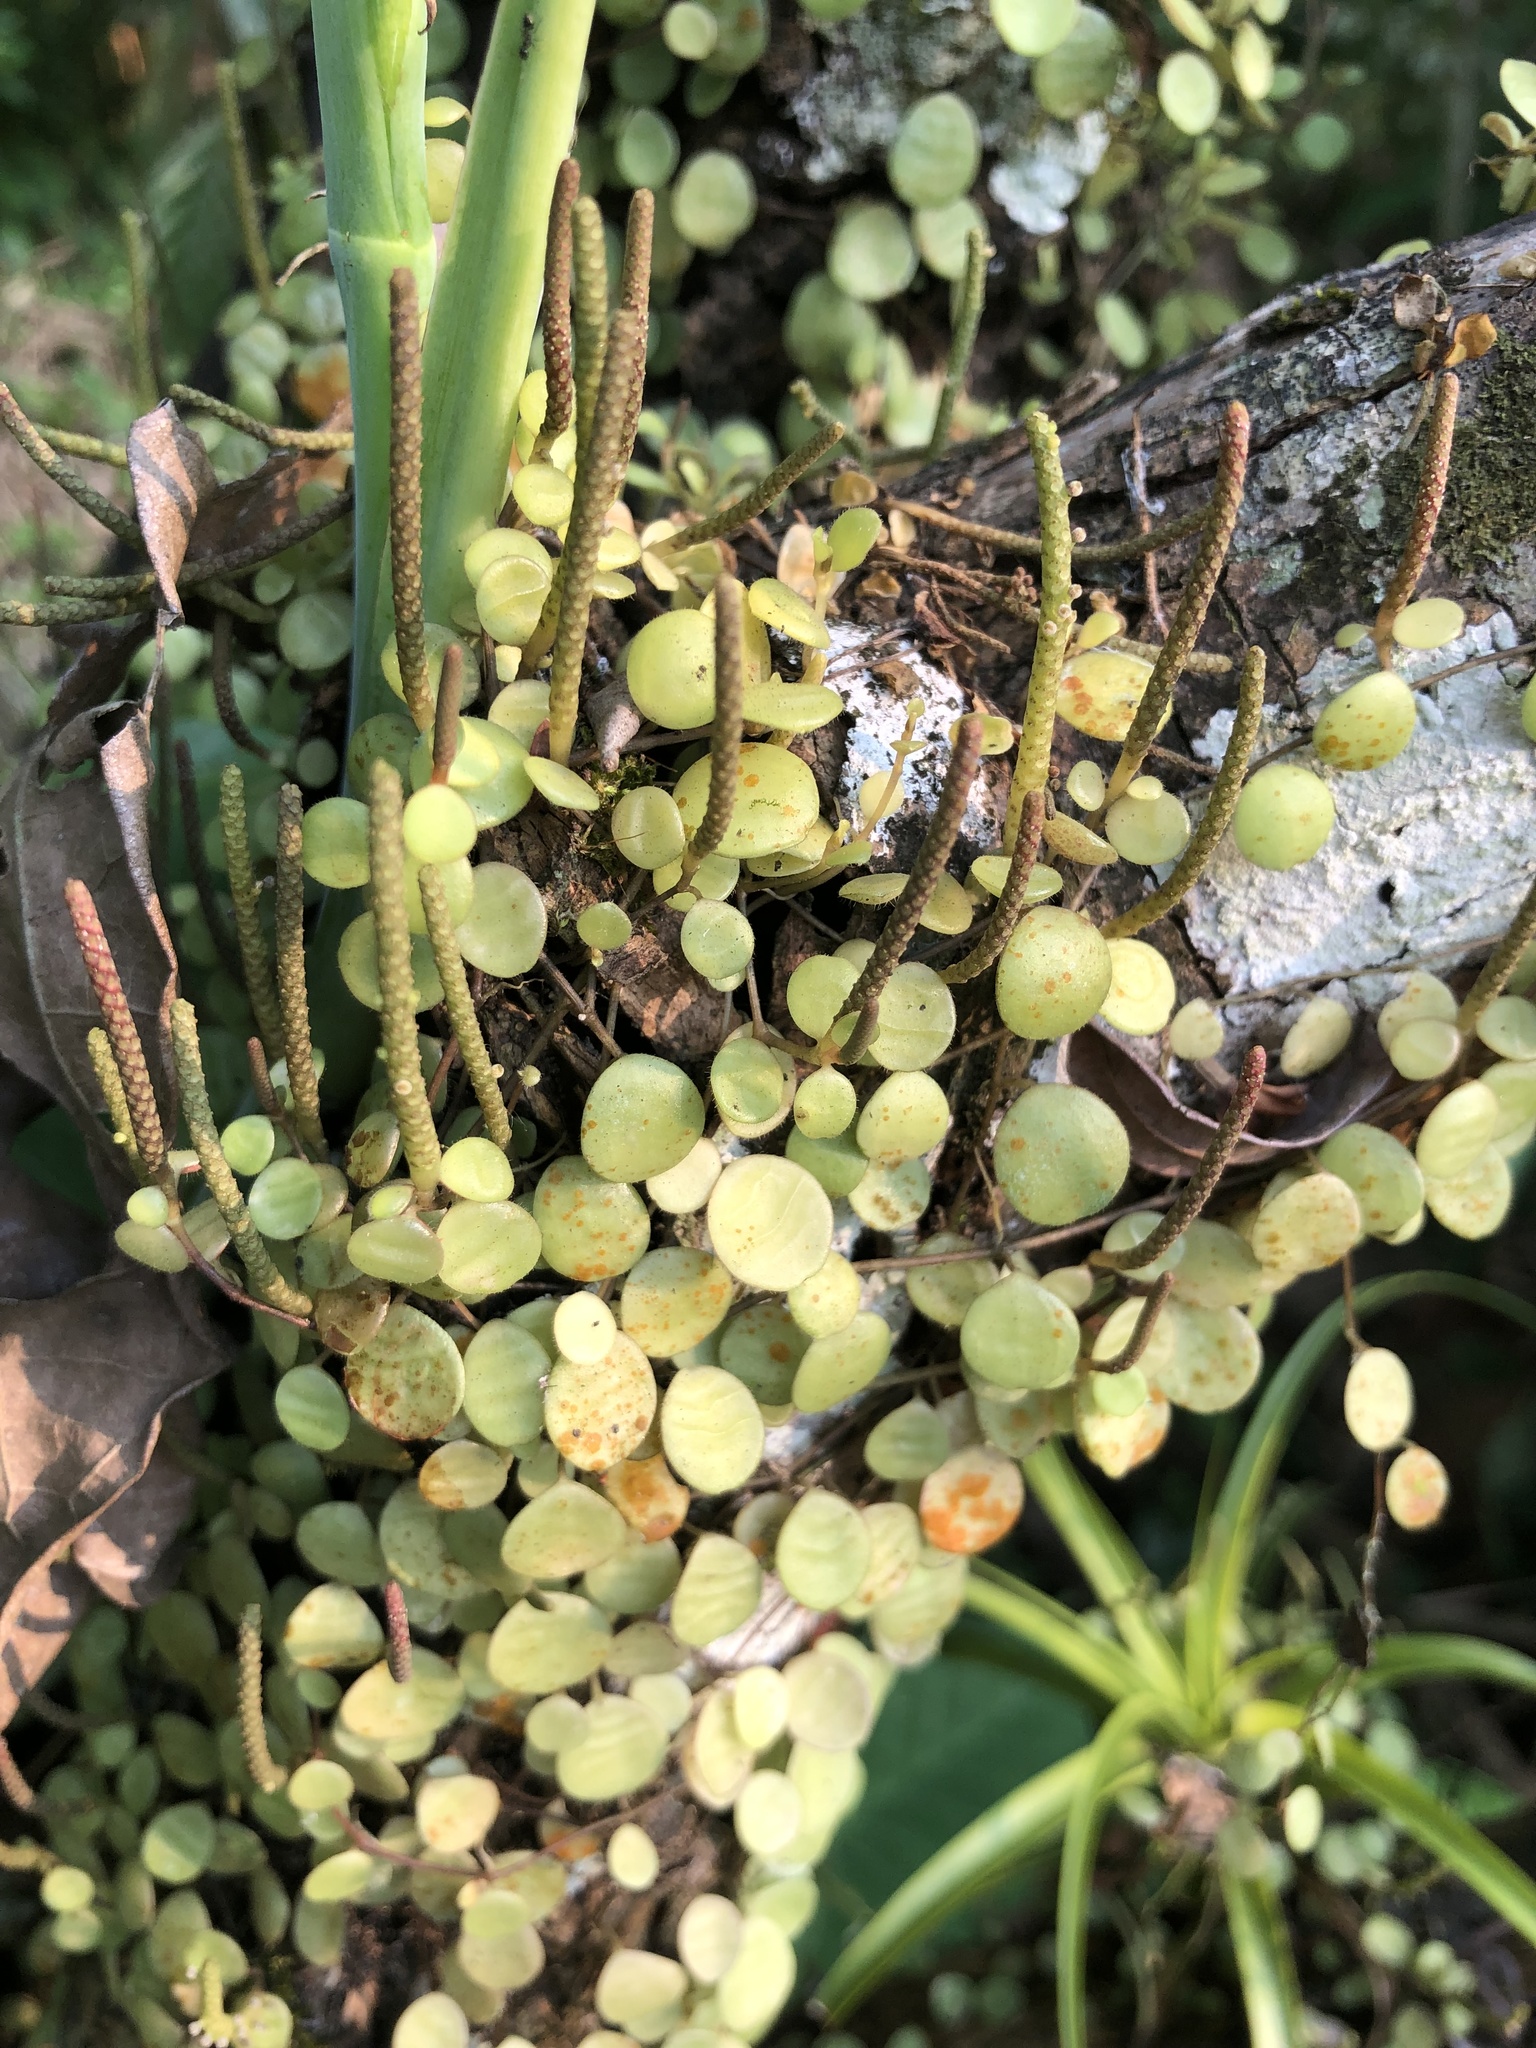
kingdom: Plantae
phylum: Tracheophyta
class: Magnoliopsida
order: Piperales
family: Piperaceae
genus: Peperomia
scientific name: Peperomia rotundifolia
